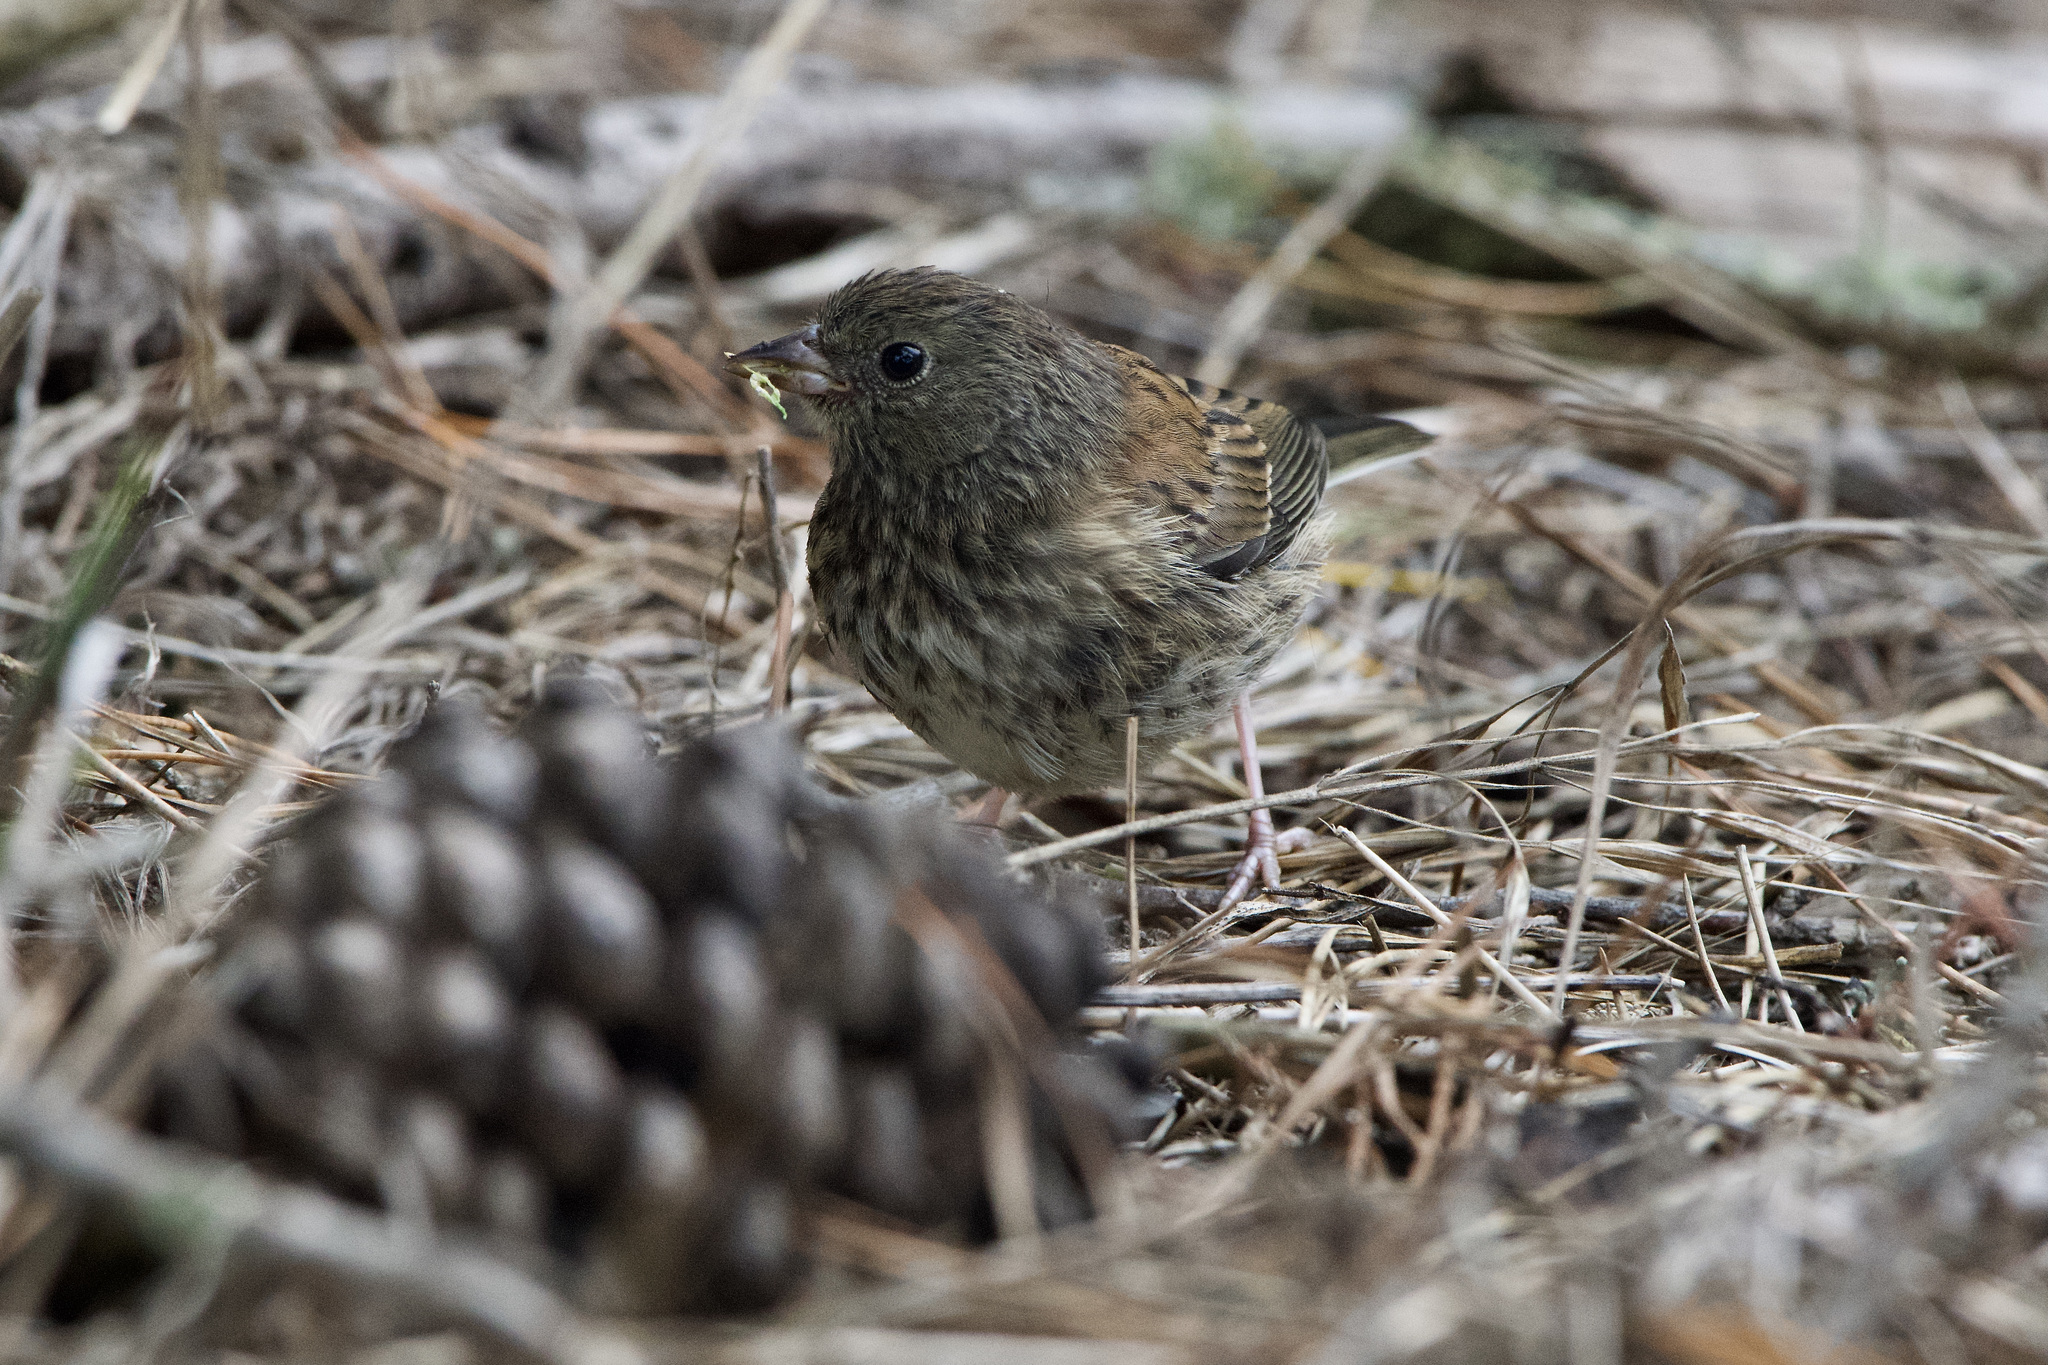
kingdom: Animalia
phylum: Chordata
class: Aves
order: Passeriformes
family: Passerellidae
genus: Junco
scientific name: Junco hyemalis
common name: Dark-eyed junco
